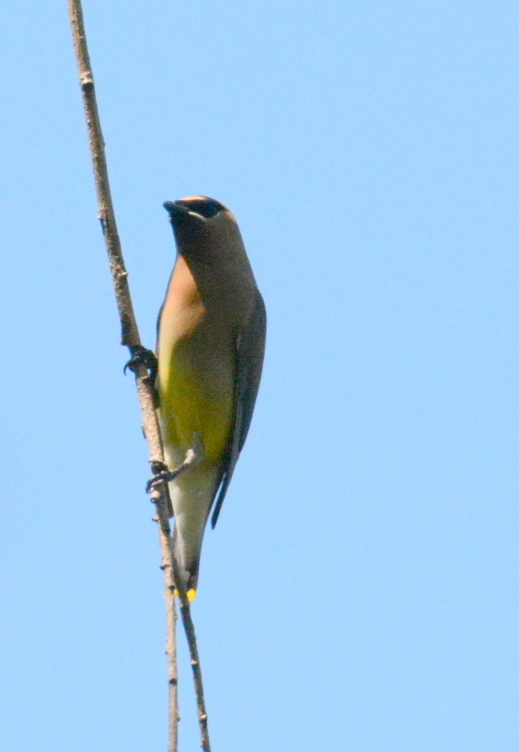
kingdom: Animalia
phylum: Chordata
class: Aves
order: Passeriformes
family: Bombycillidae
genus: Bombycilla
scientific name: Bombycilla cedrorum
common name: Cedar waxwing
